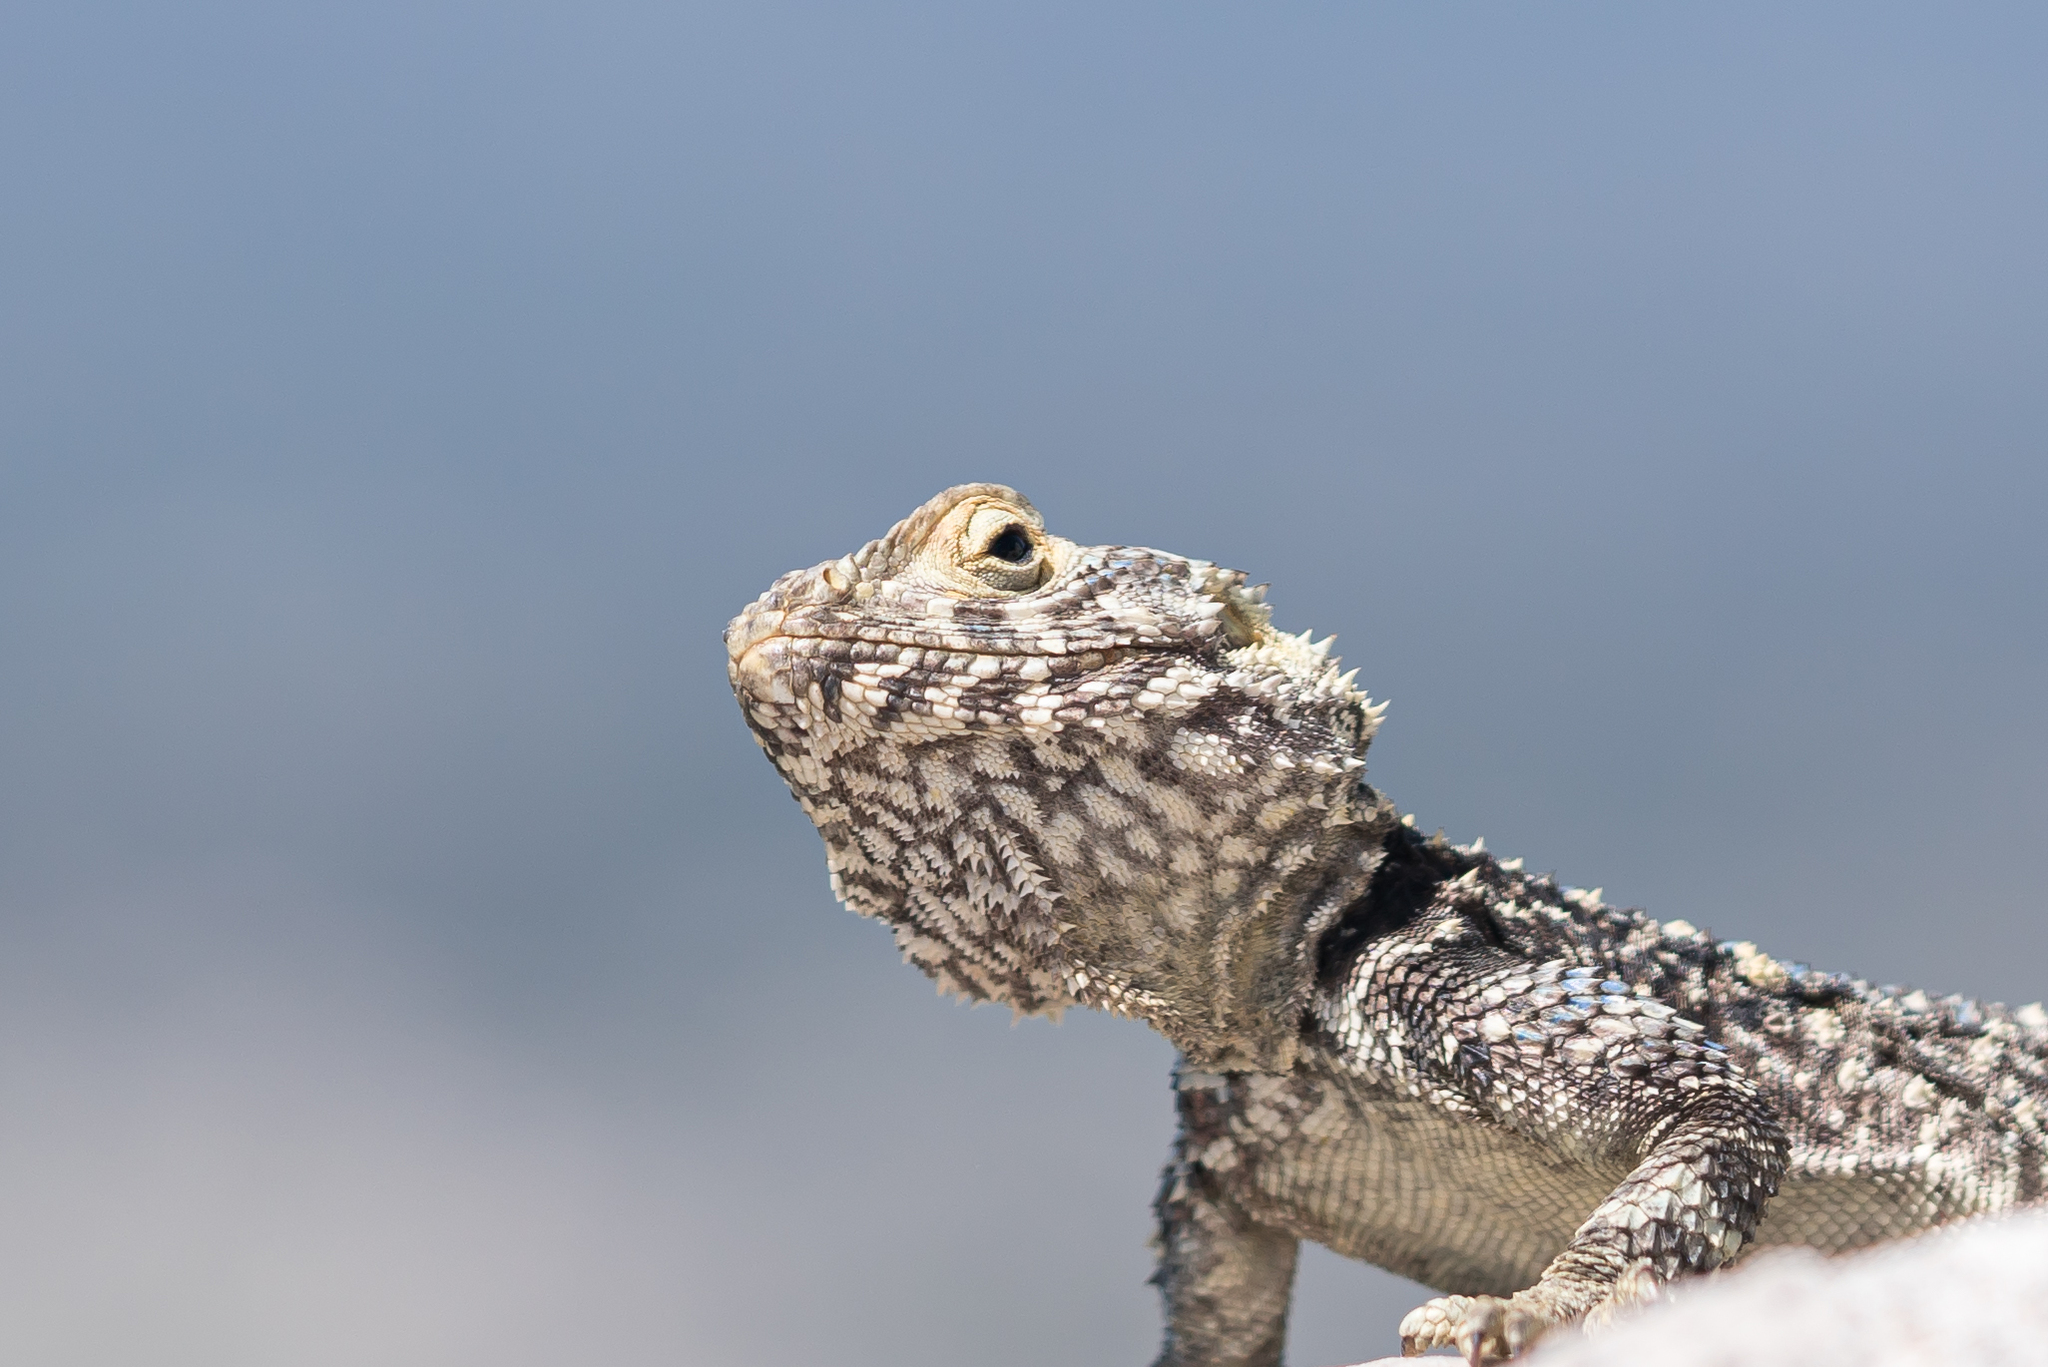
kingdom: Animalia
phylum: Chordata
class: Squamata
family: Agamidae
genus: Stellagama
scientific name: Stellagama stellio
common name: Starred agama
